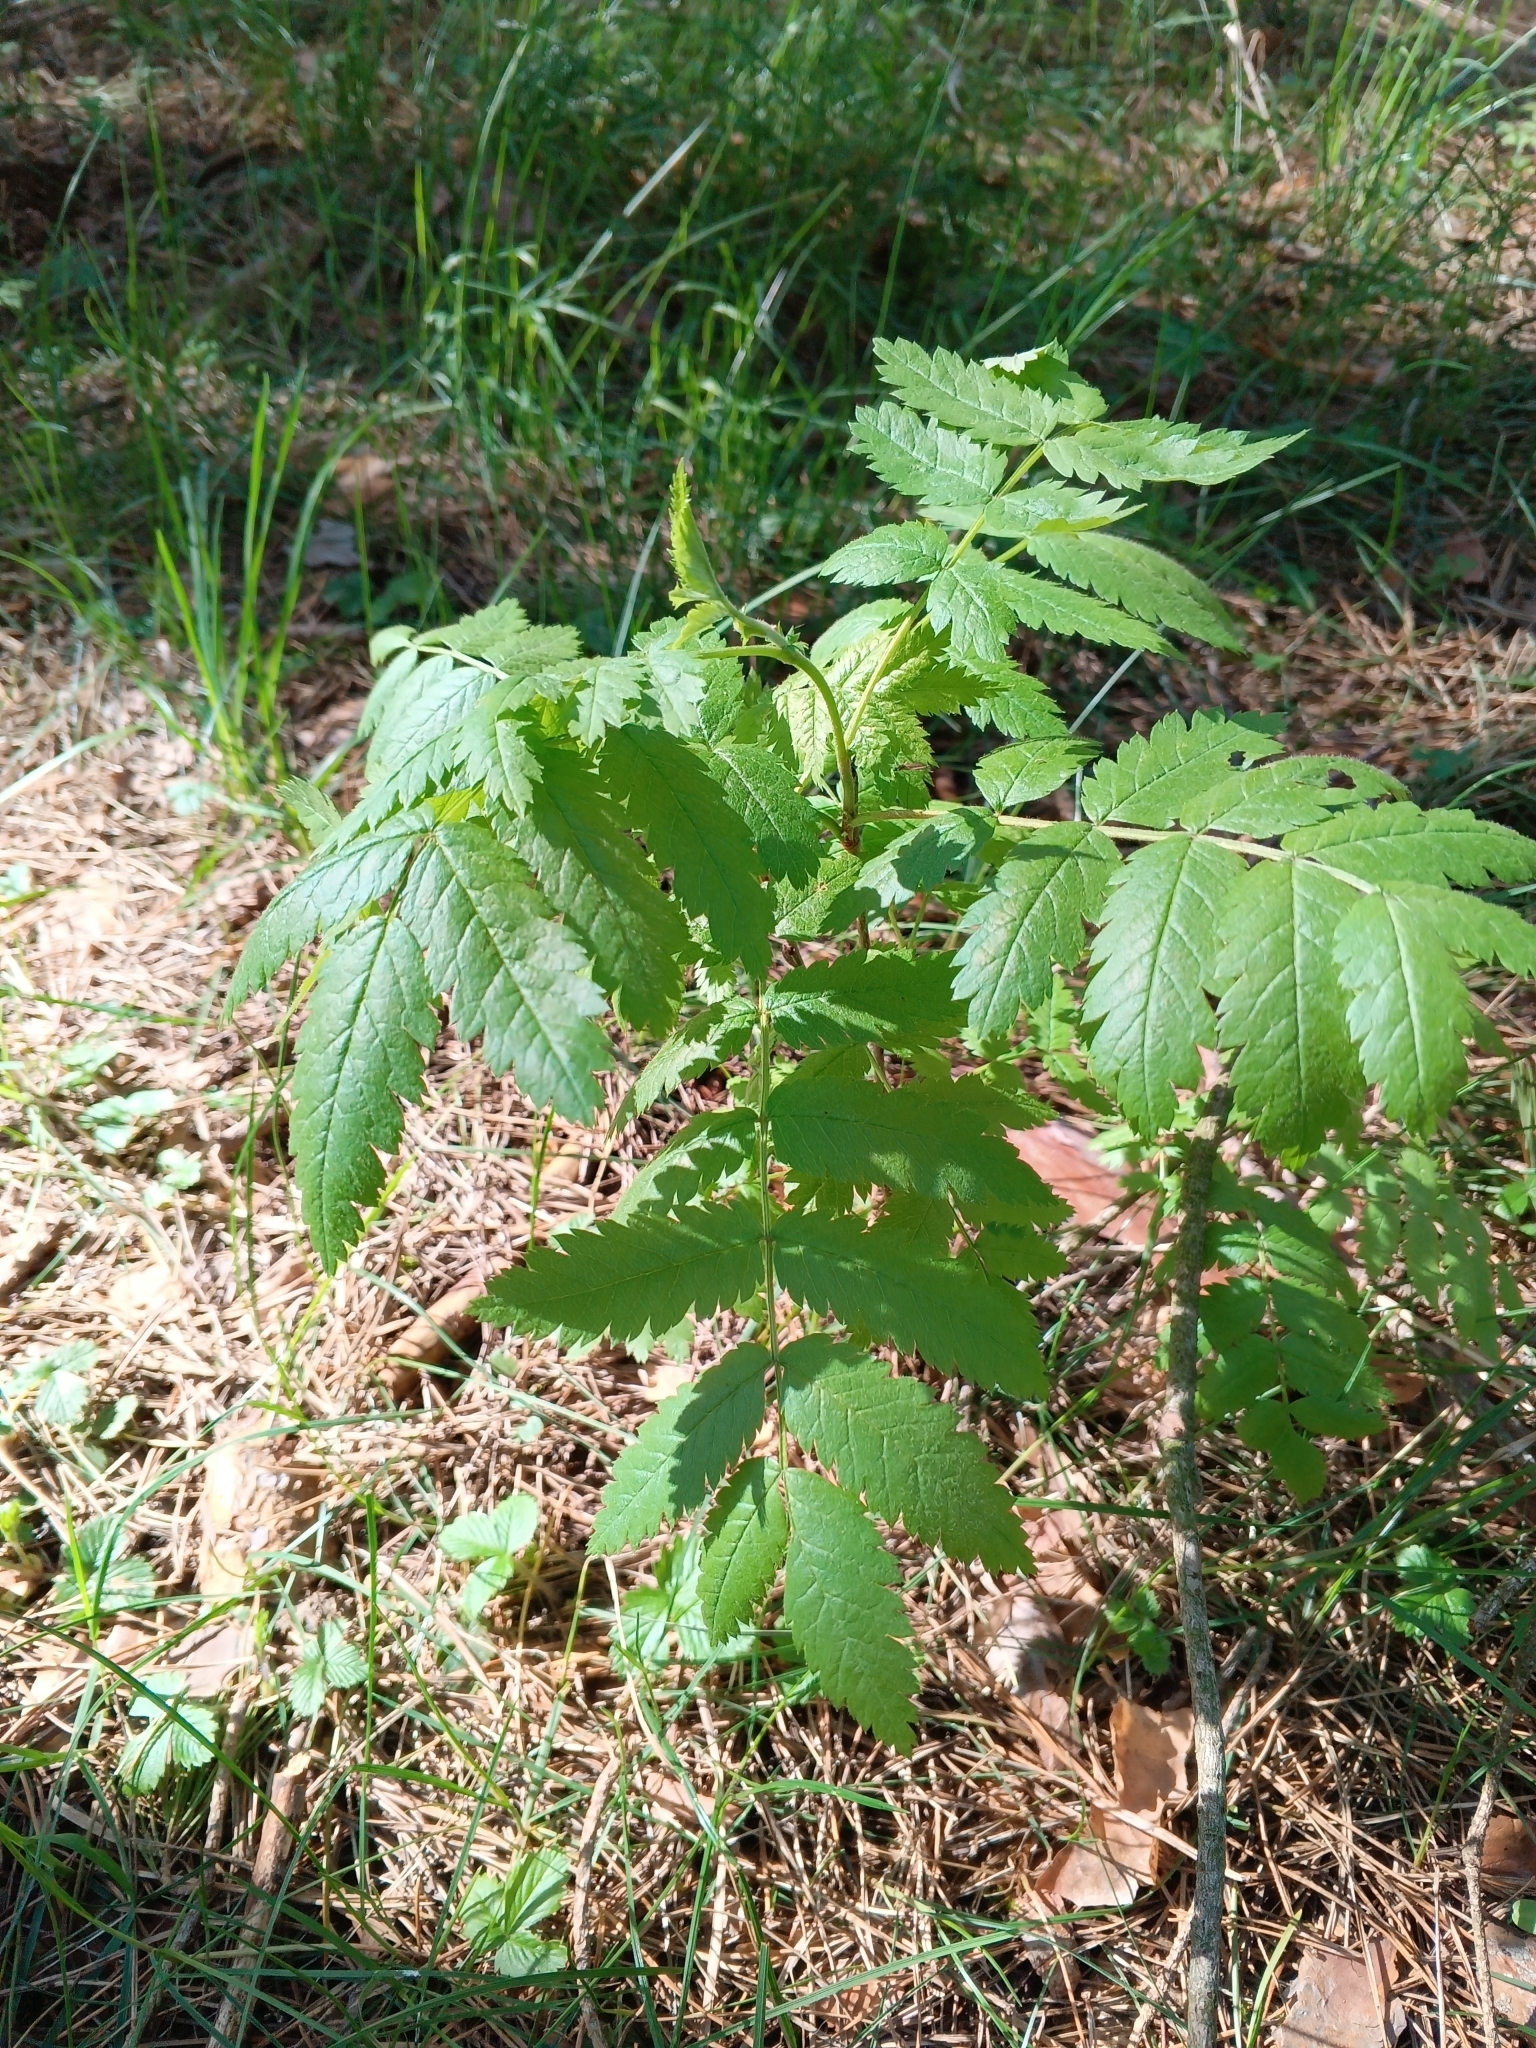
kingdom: Plantae
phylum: Tracheophyta
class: Magnoliopsida
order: Rosales
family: Rosaceae
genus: Sorbus
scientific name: Sorbus aucuparia
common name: Rowan
